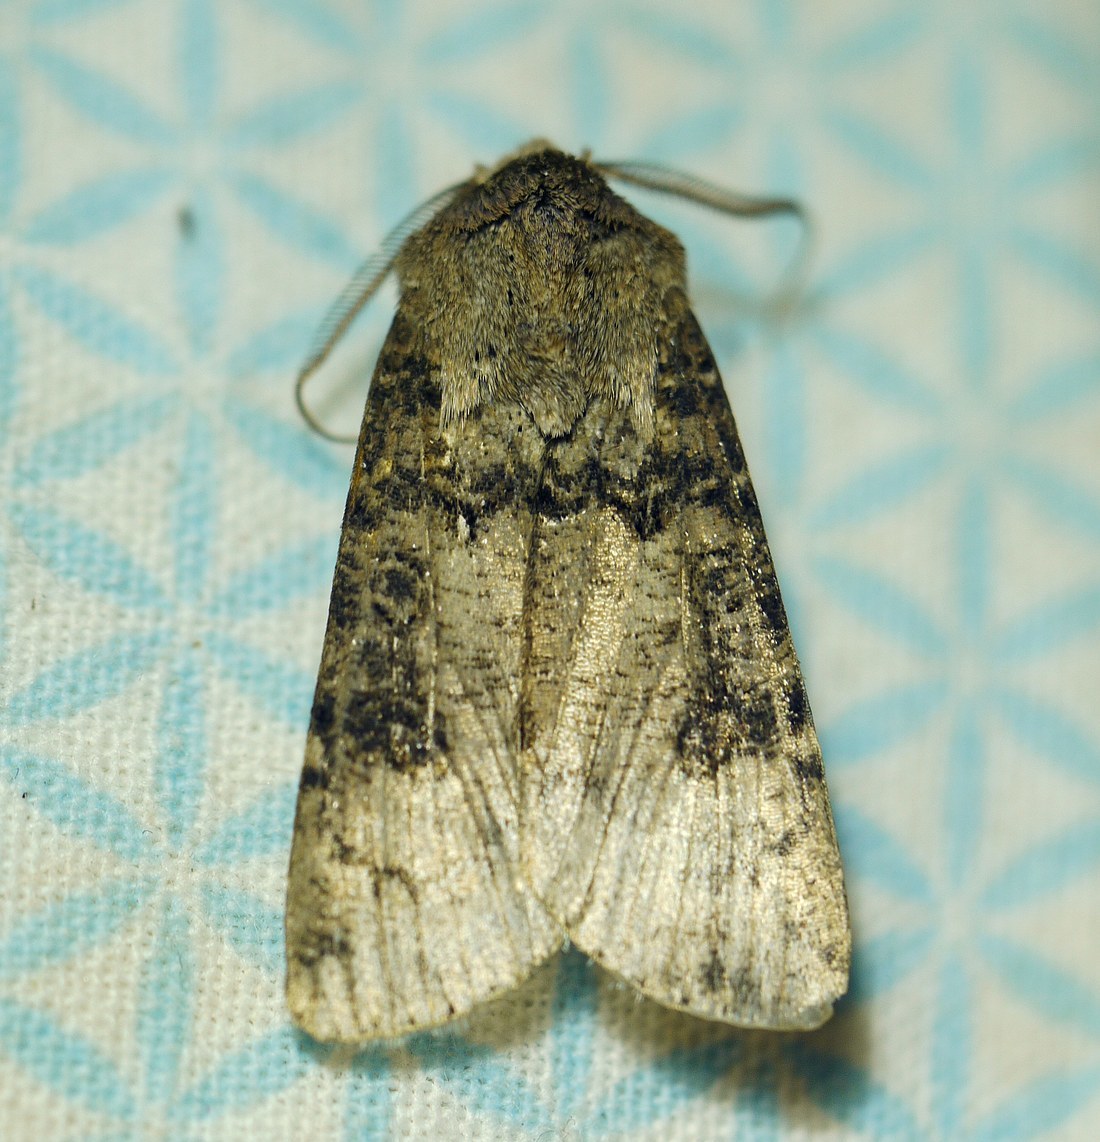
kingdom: Animalia
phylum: Arthropoda
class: Insecta
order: Lepidoptera
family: Noctuidae
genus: Agrotis
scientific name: Agrotis segetum
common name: Turnip moth
